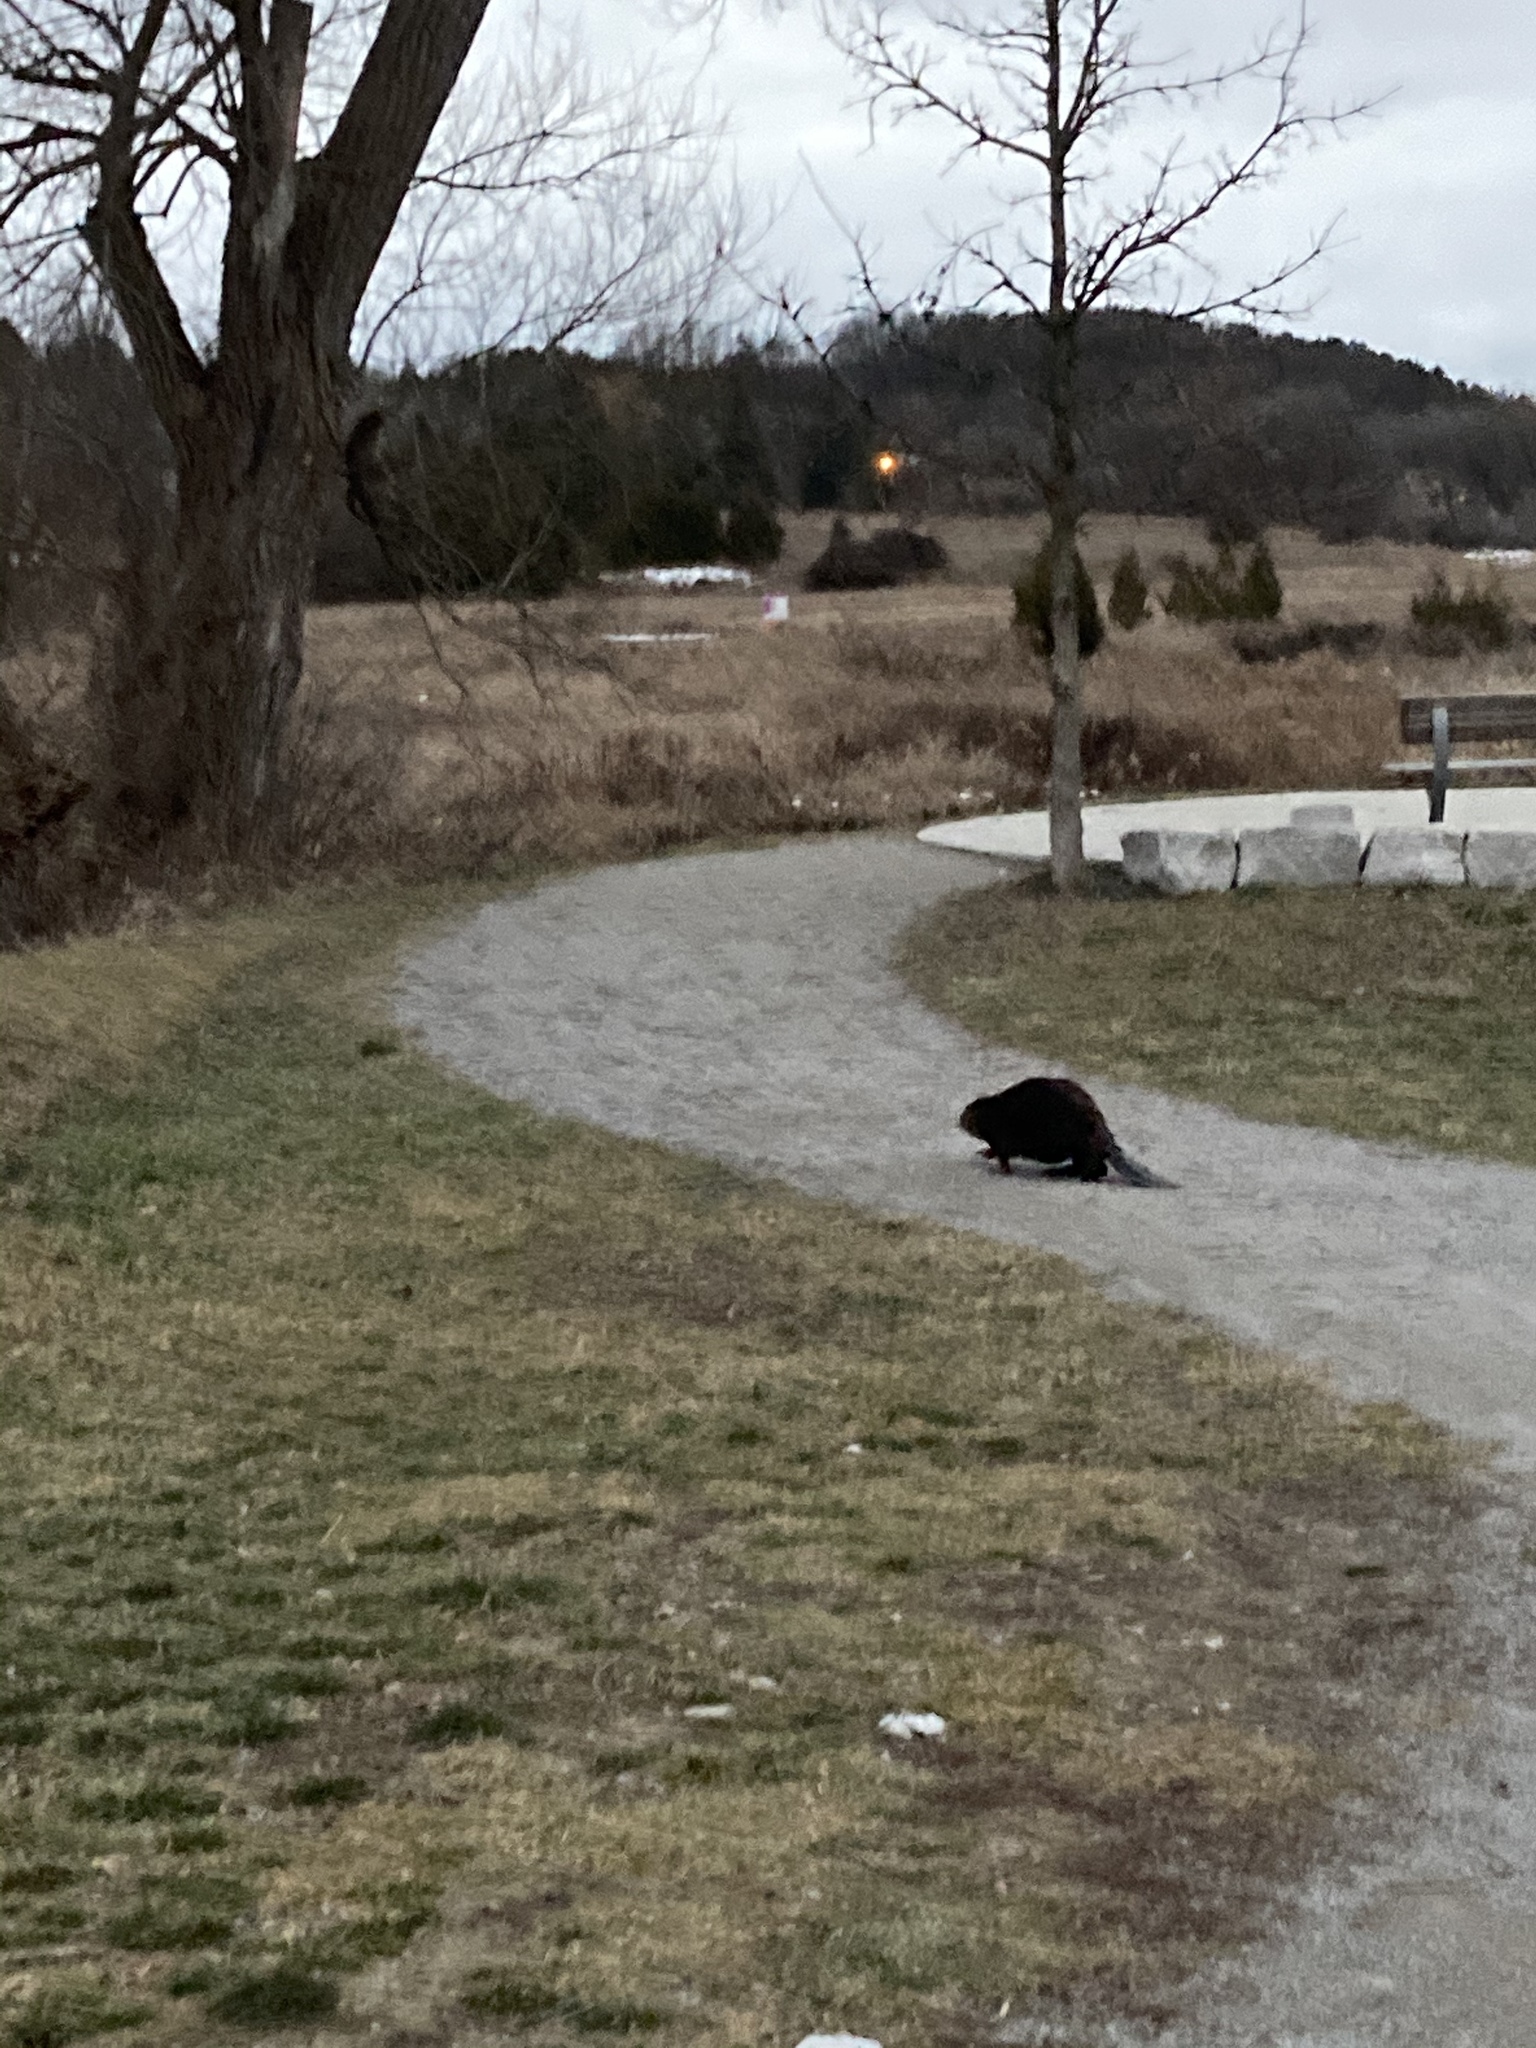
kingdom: Animalia
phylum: Chordata
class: Mammalia
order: Rodentia
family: Castoridae
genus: Castor
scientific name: Castor canadensis
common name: American beaver
